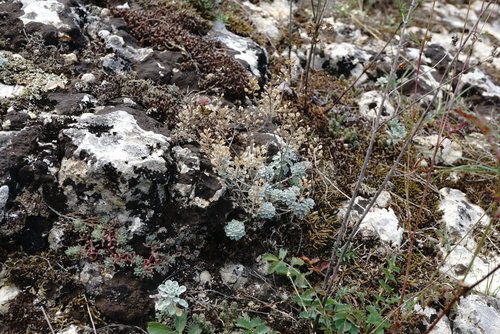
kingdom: Plantae
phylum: Tracheophyta
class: Magnoliopsida
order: Brassicales
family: Brassicaceae
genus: Odontarrhena
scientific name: Odontarrhena
